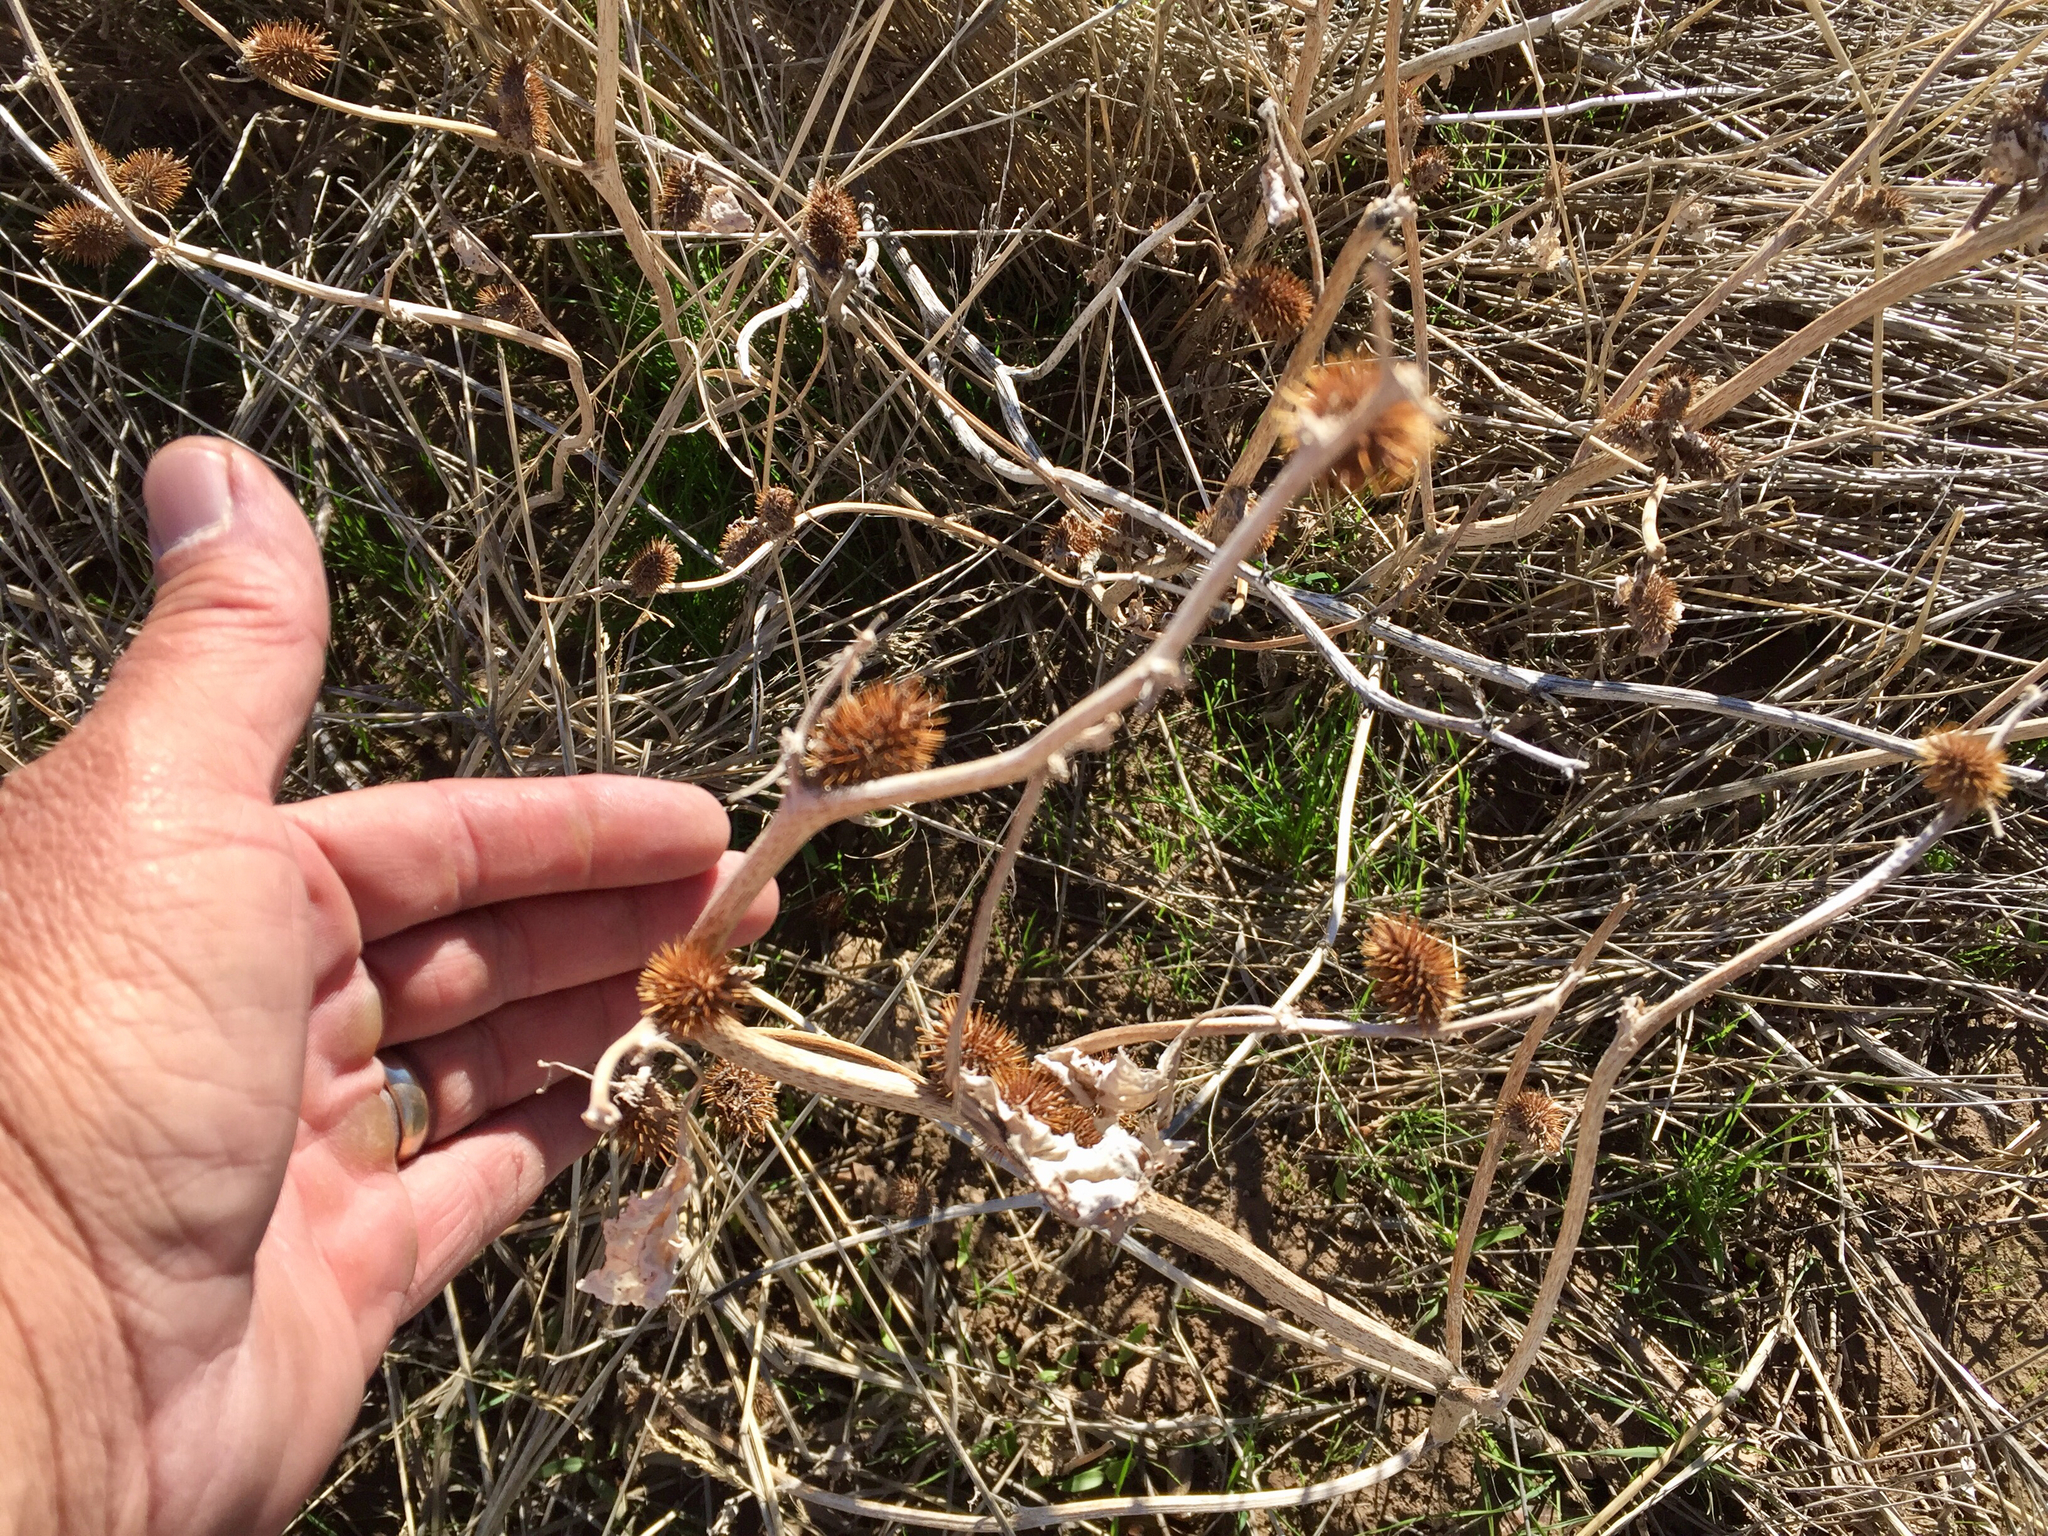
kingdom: Plantae
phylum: Tracheophyta
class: Magnoliopsida
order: Asterales
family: Asteraceae
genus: Xanthium
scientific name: Xanthium strumarium
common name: Rough cocklebur
